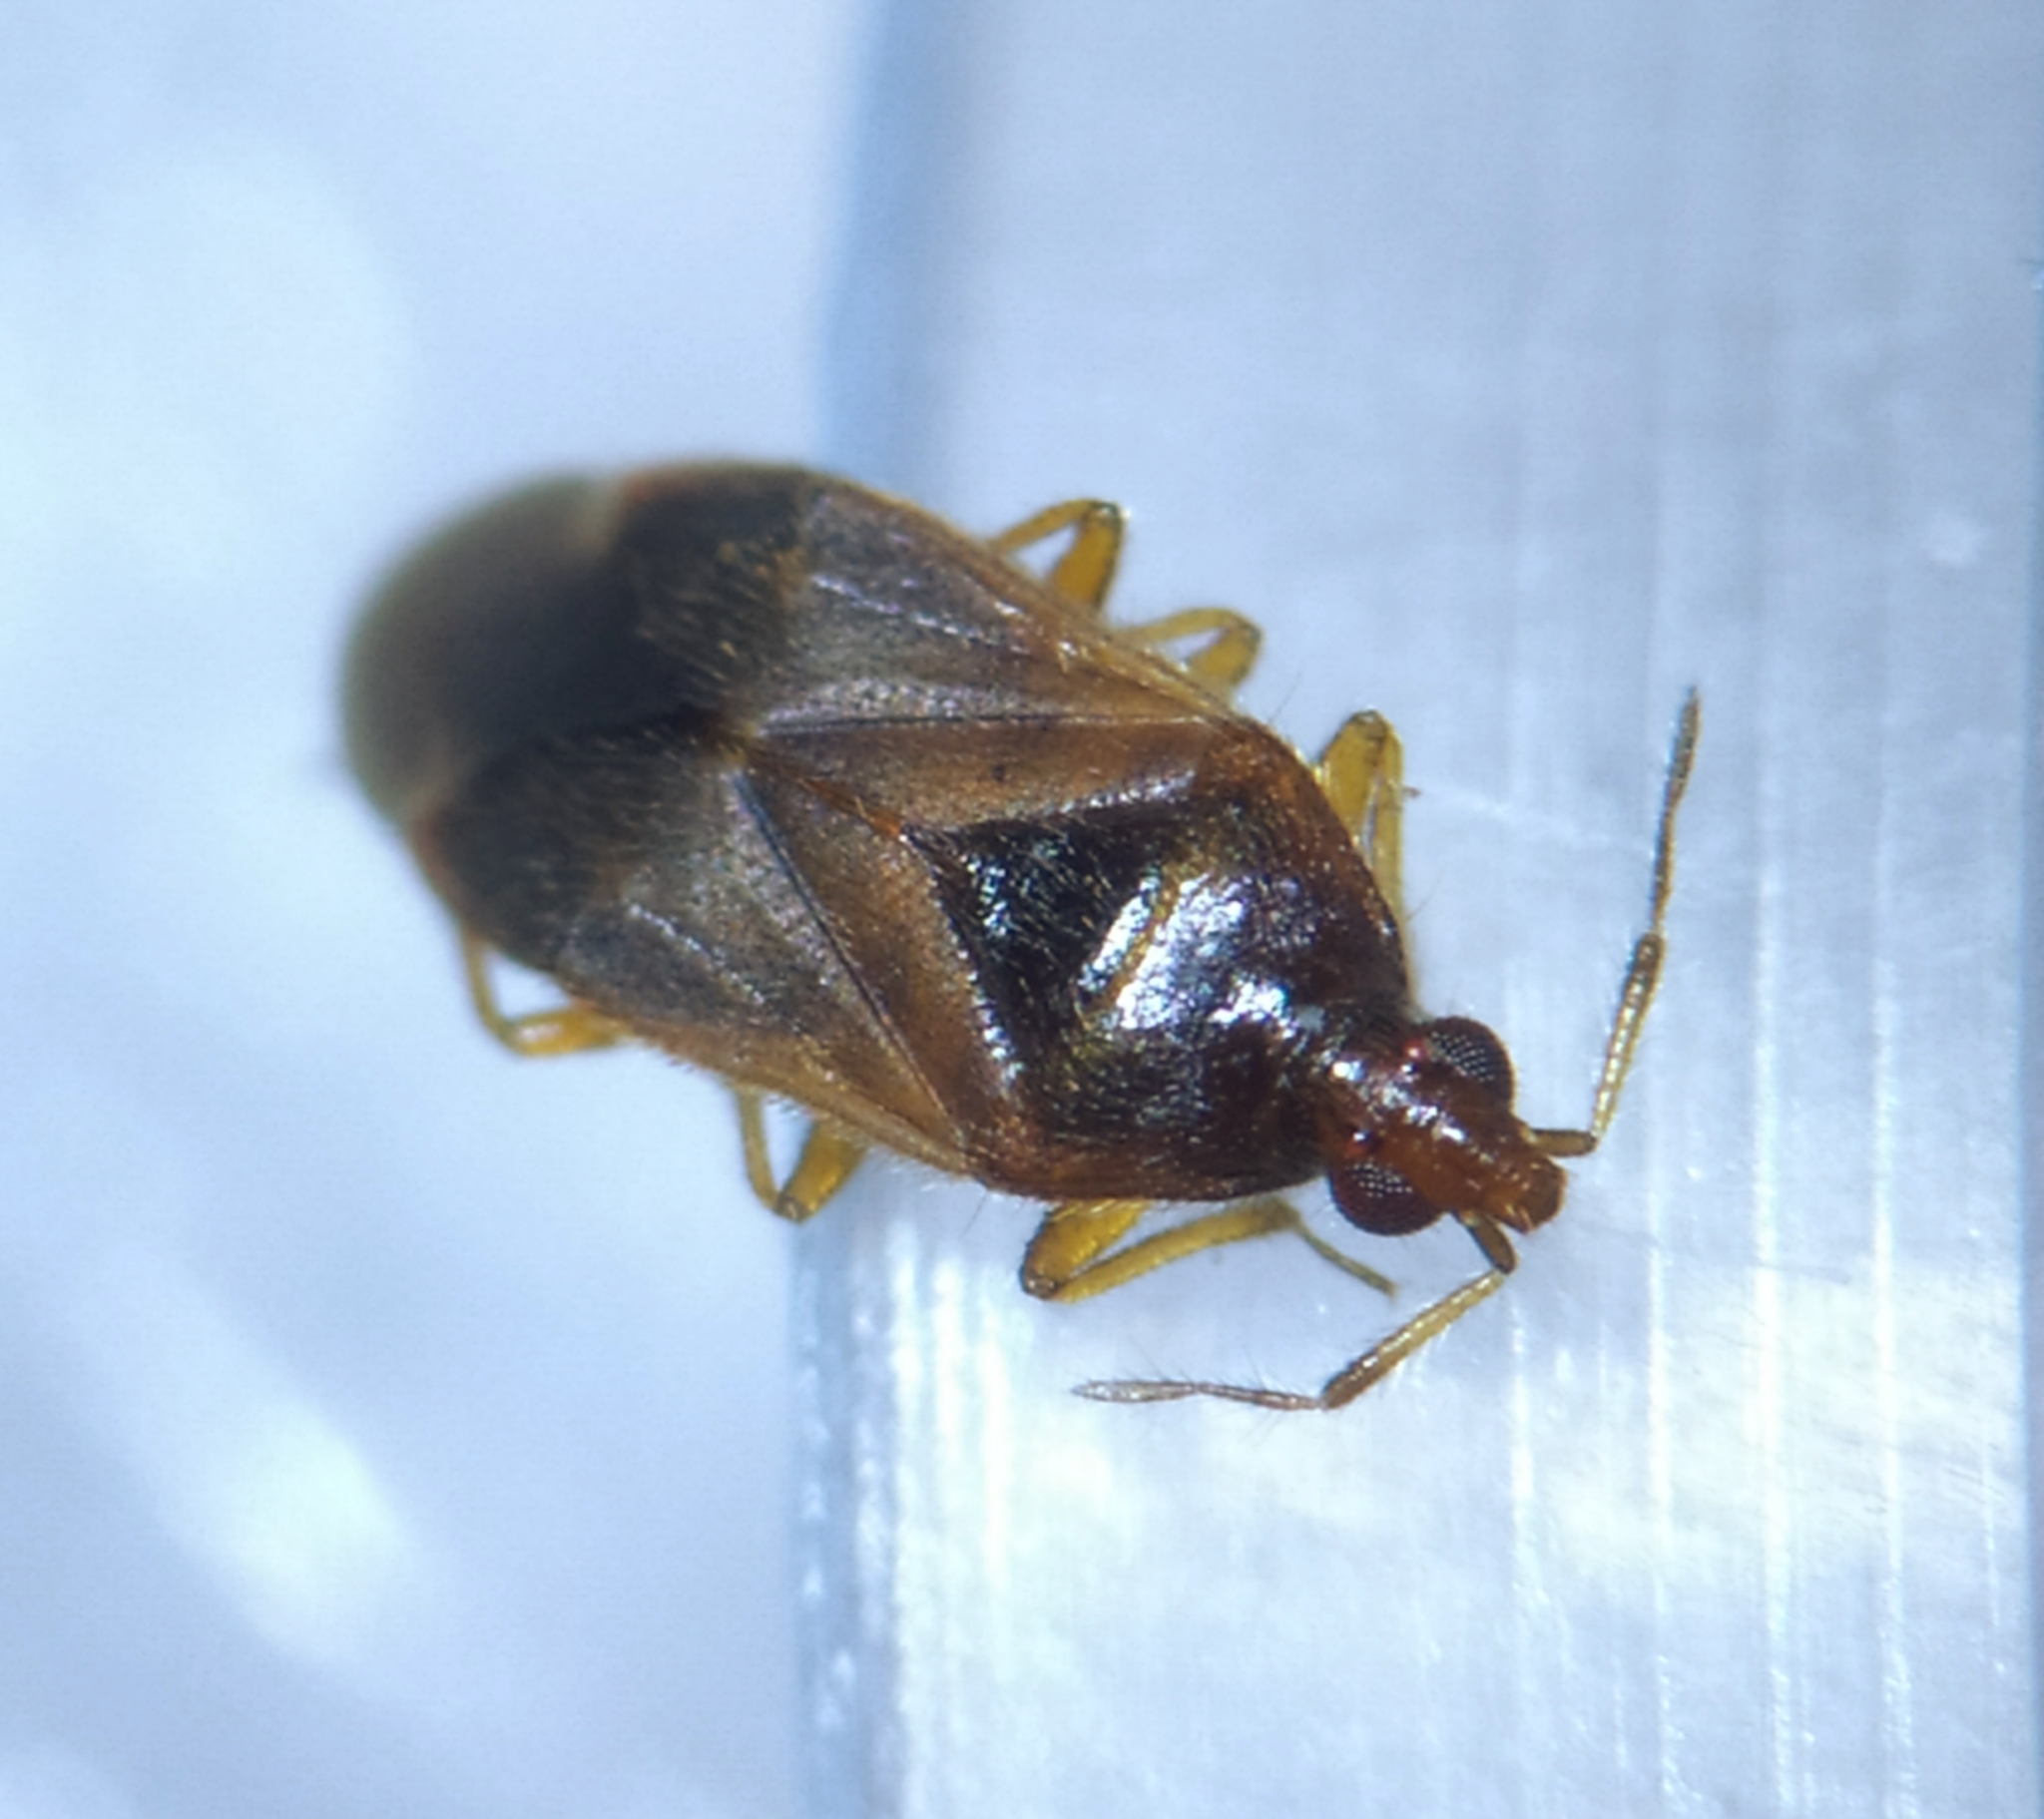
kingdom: Animalia
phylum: Arthropoda
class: Insecta
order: Hemiptera
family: Anthocoridae
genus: Cardiastethus
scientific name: Cardiastethus fasciiventris
